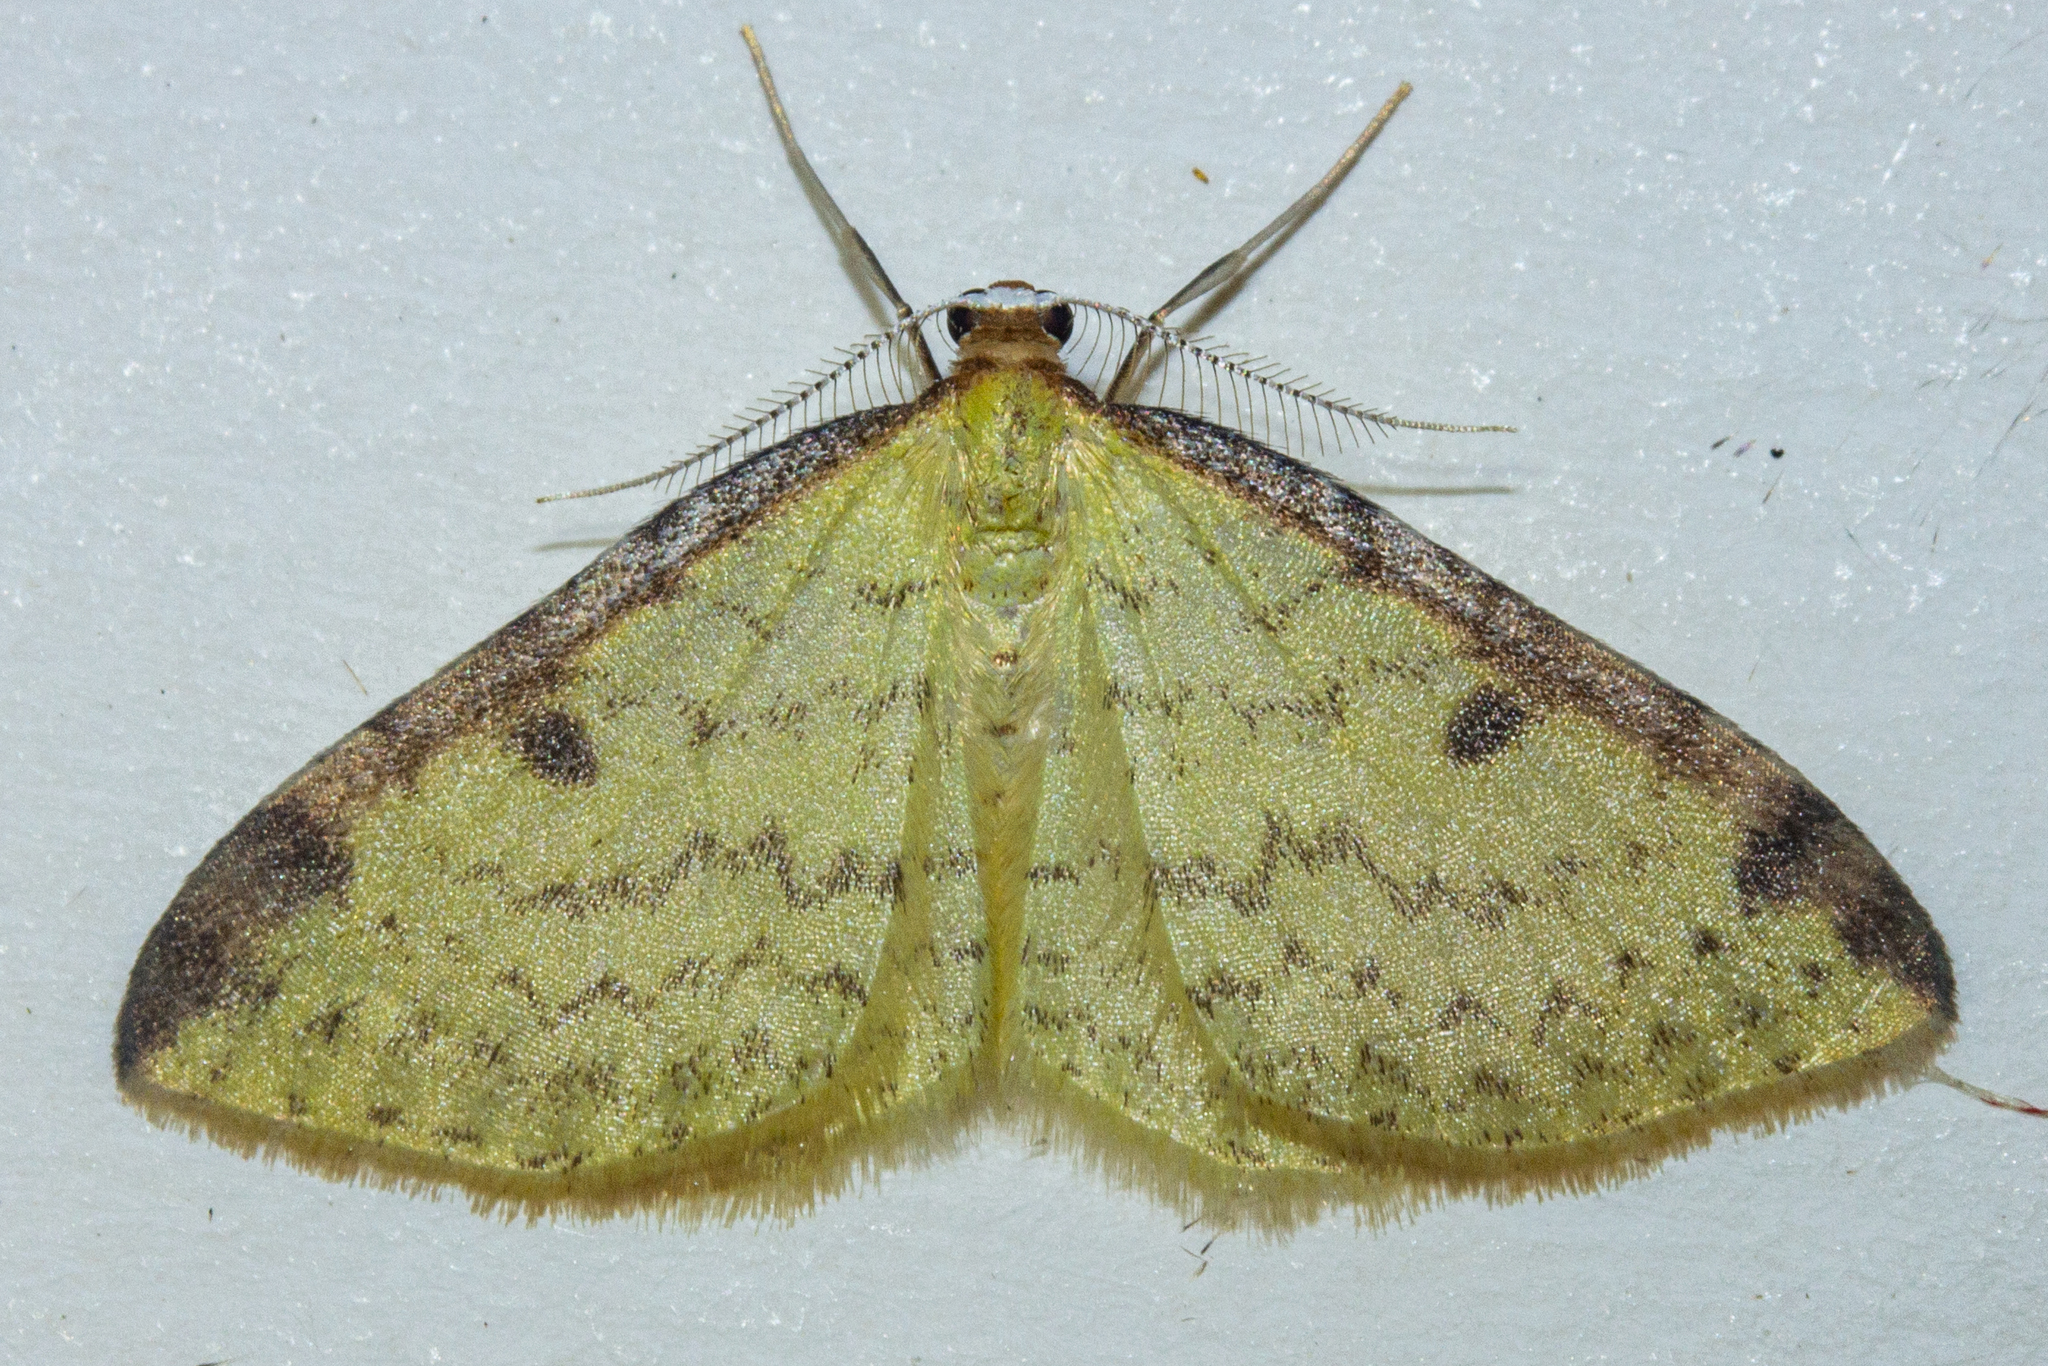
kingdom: Animalia
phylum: Arthropoda
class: Insecta
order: Lepidoptera
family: Geometridae
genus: Epiphryne
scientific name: Epiphryne undosata
